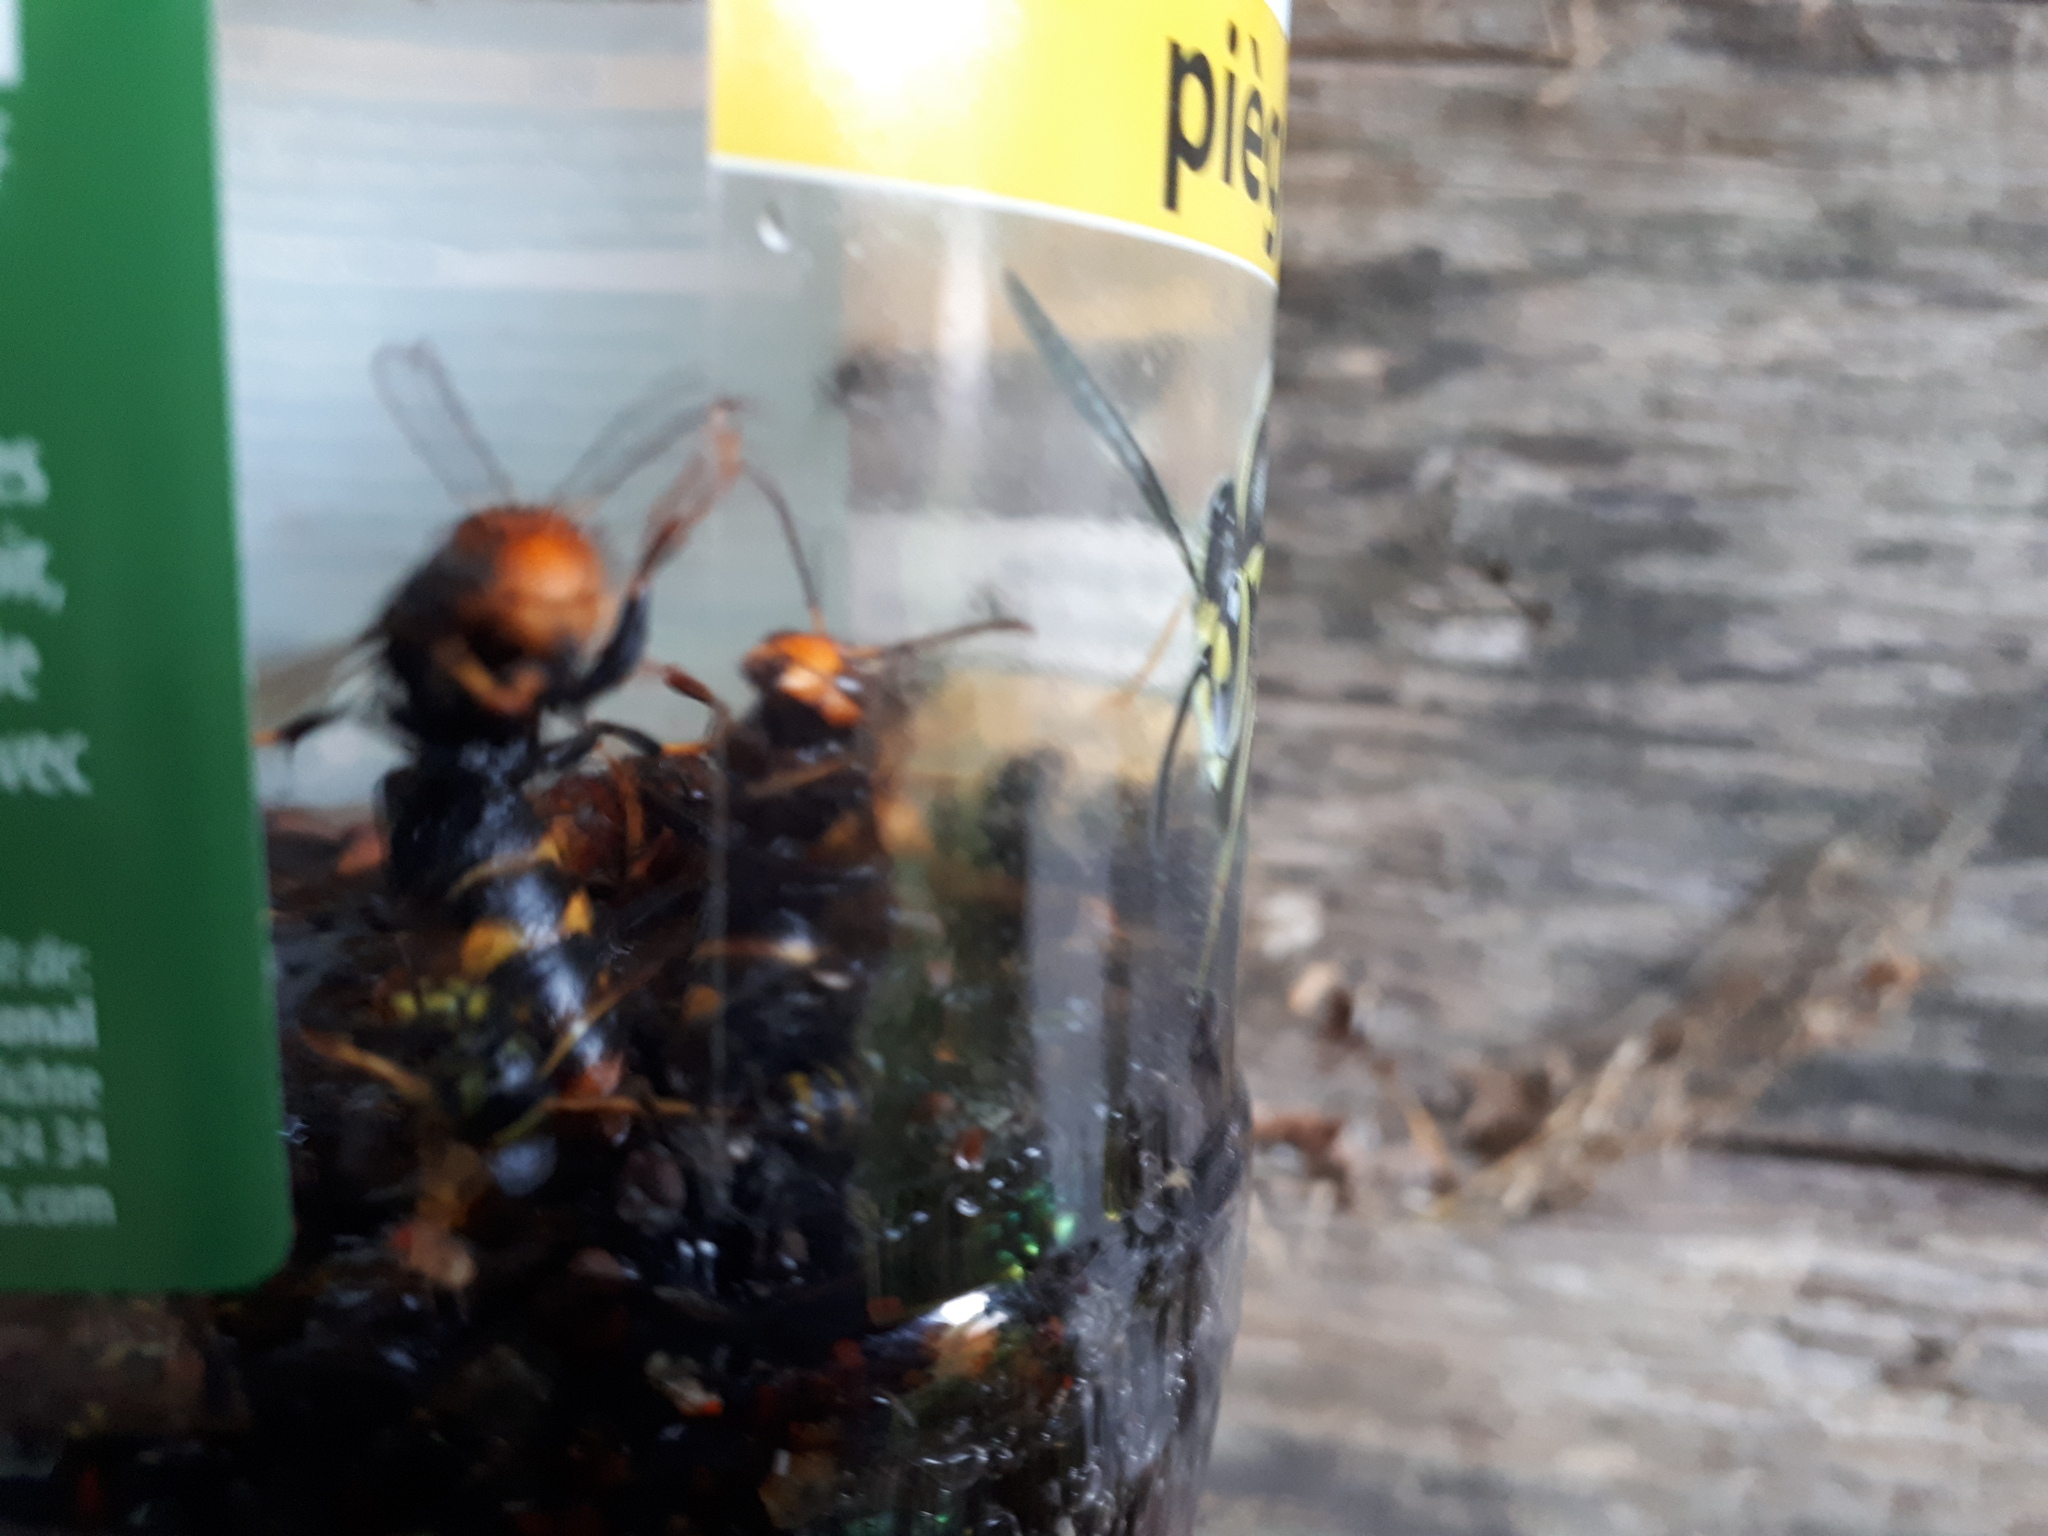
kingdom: Animalia
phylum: Arthropoda
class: Insecta
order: Hymenoptera
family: Vespidae
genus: Vespa
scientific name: Vespa velutina
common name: Asian hornet
